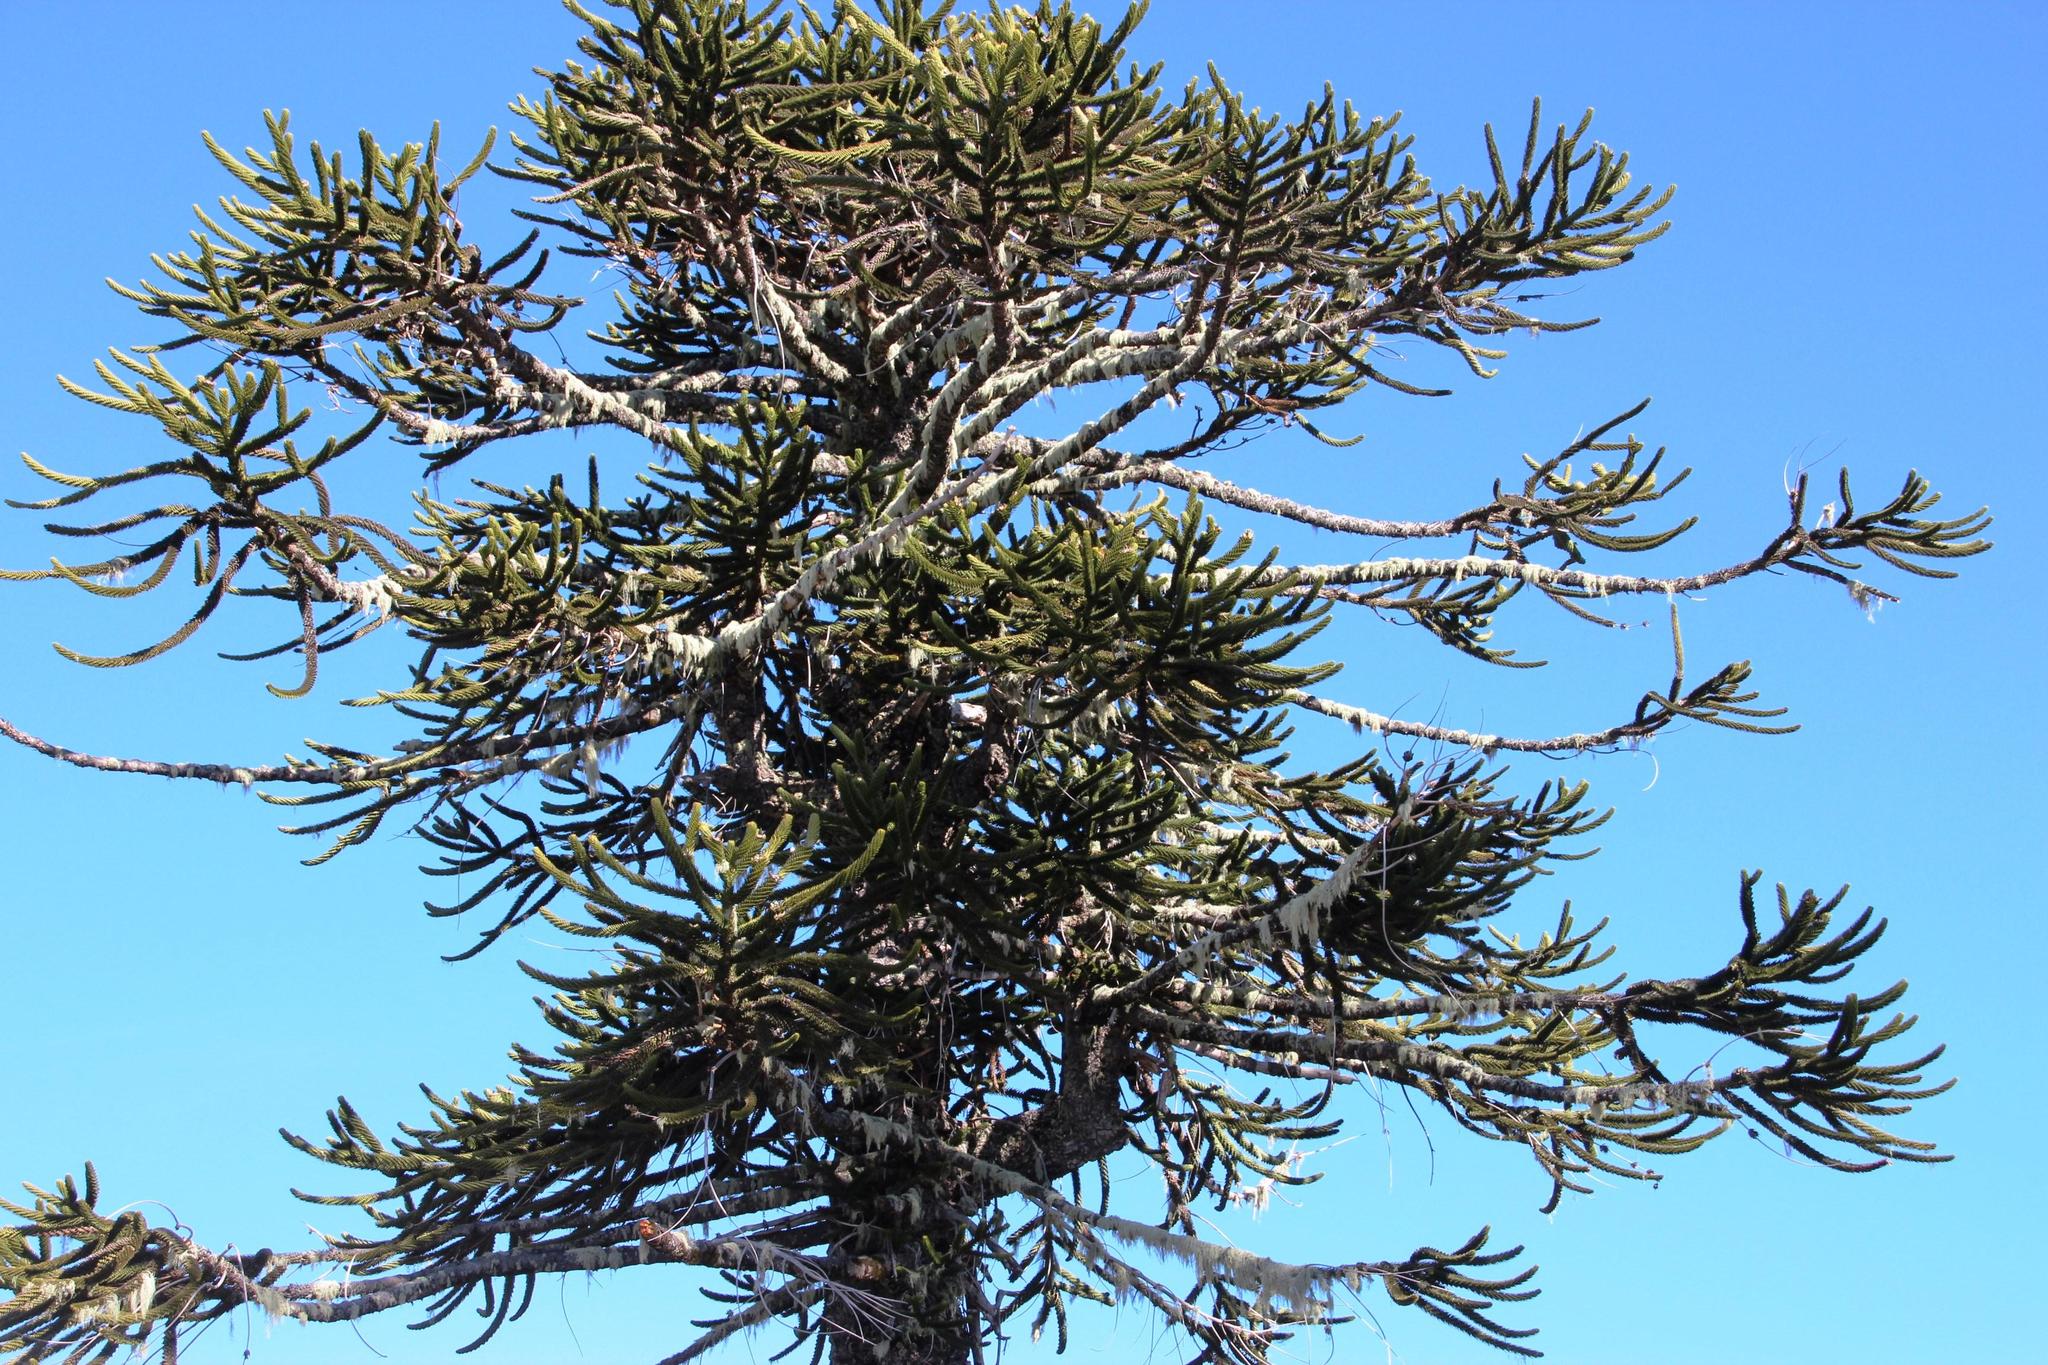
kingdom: Plantae
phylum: Tracheophyta
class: Pinopsida
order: Pinales
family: Araucariaceae
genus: Araucaria
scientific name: Araucaria araucana
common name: Monkey-puzzle
